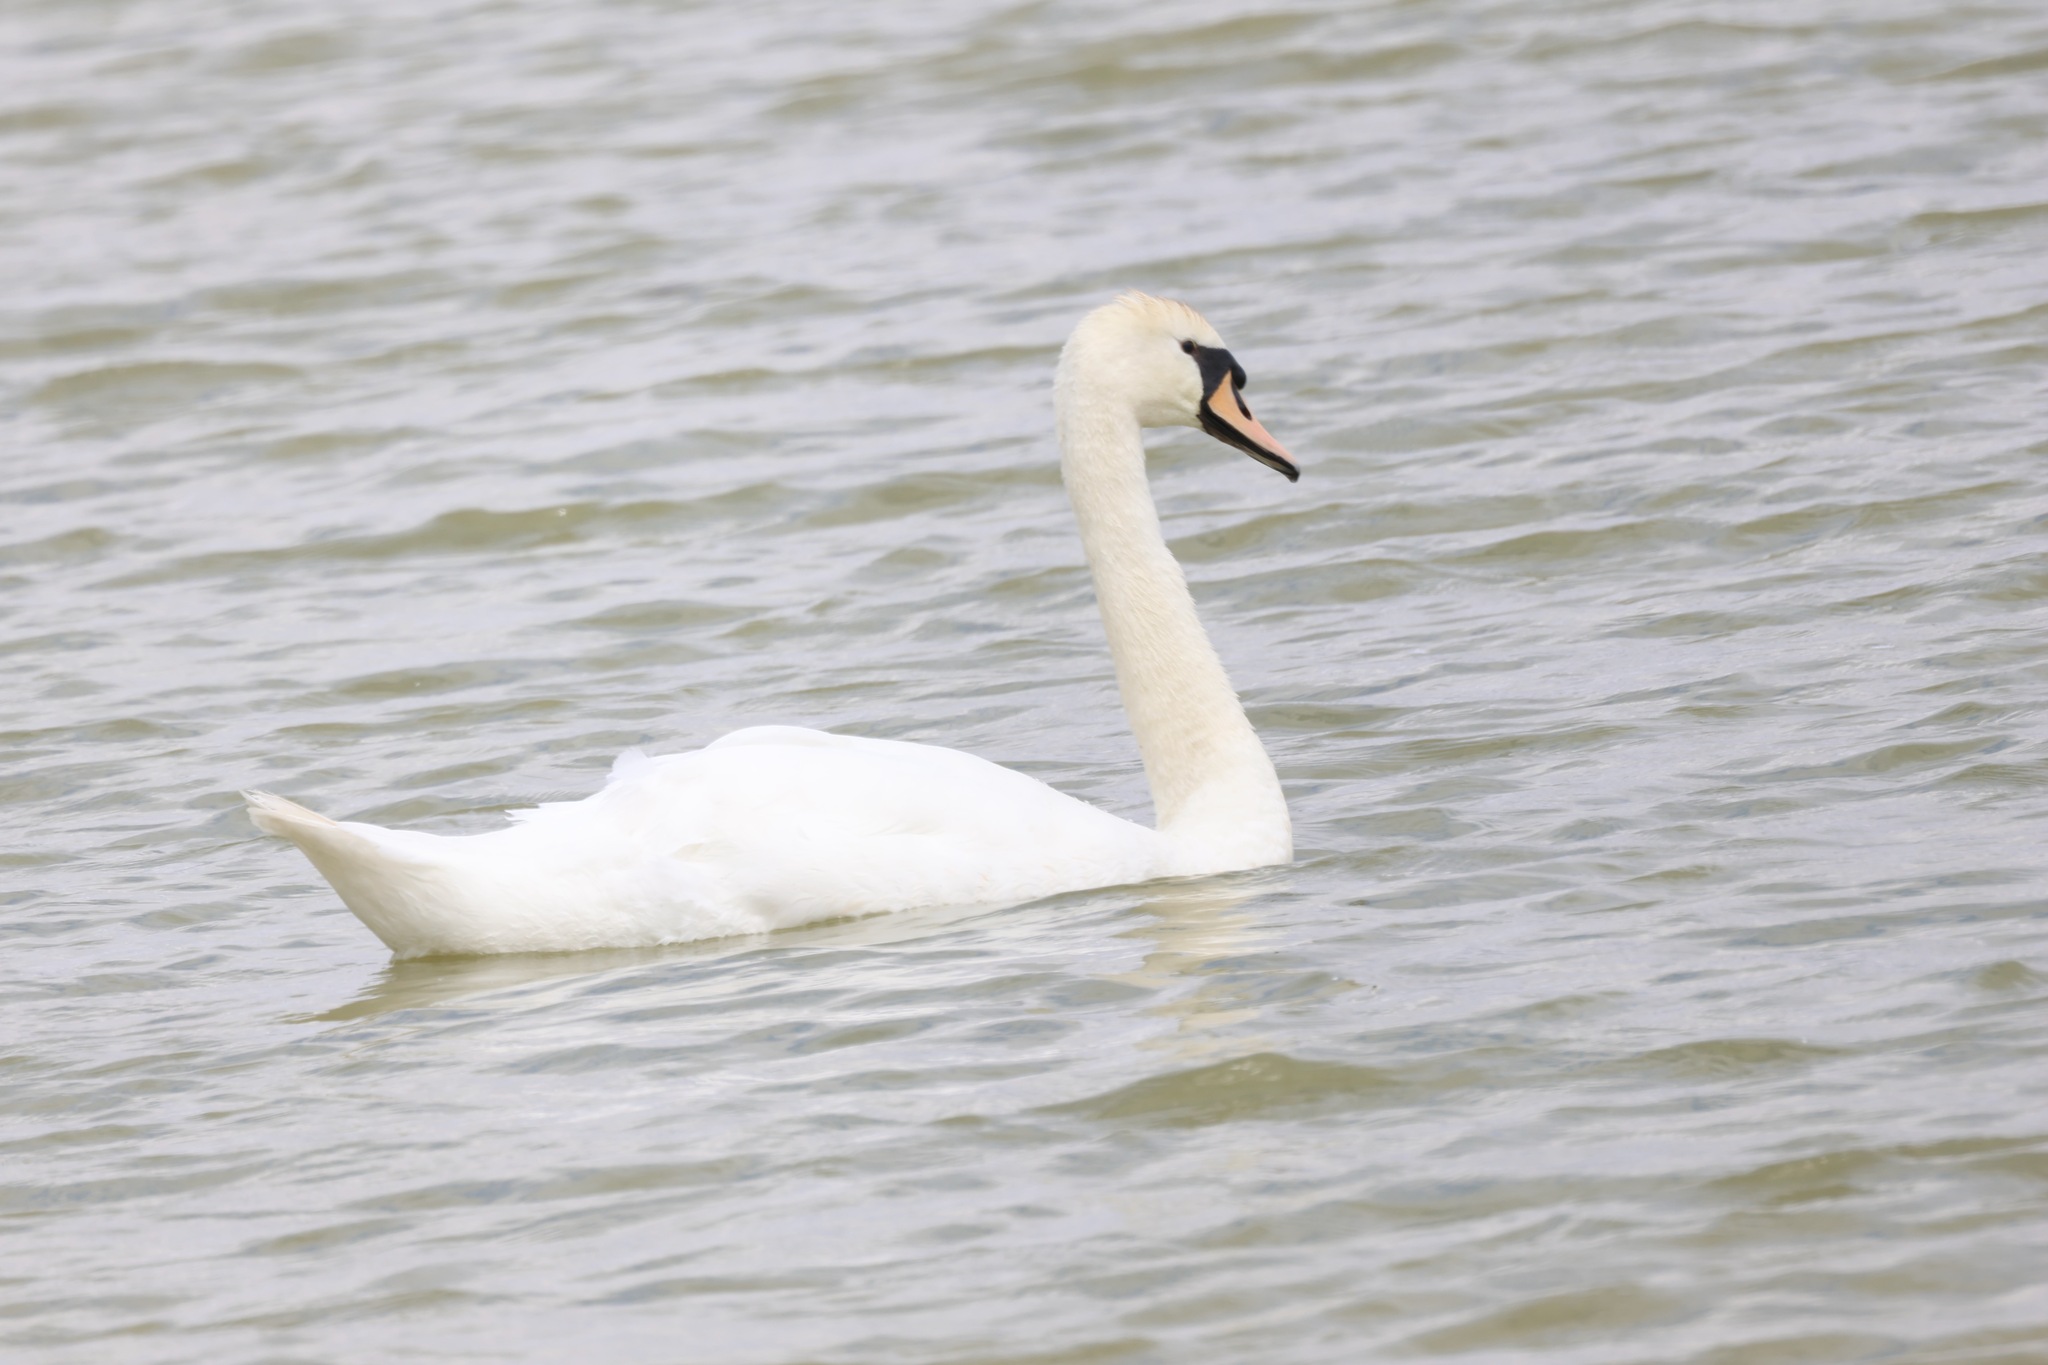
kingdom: Animalia
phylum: Chordata
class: Aves
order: Anseriformes
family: Anatidae
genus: Cygnus
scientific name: Cygnus olor
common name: Mute swan
